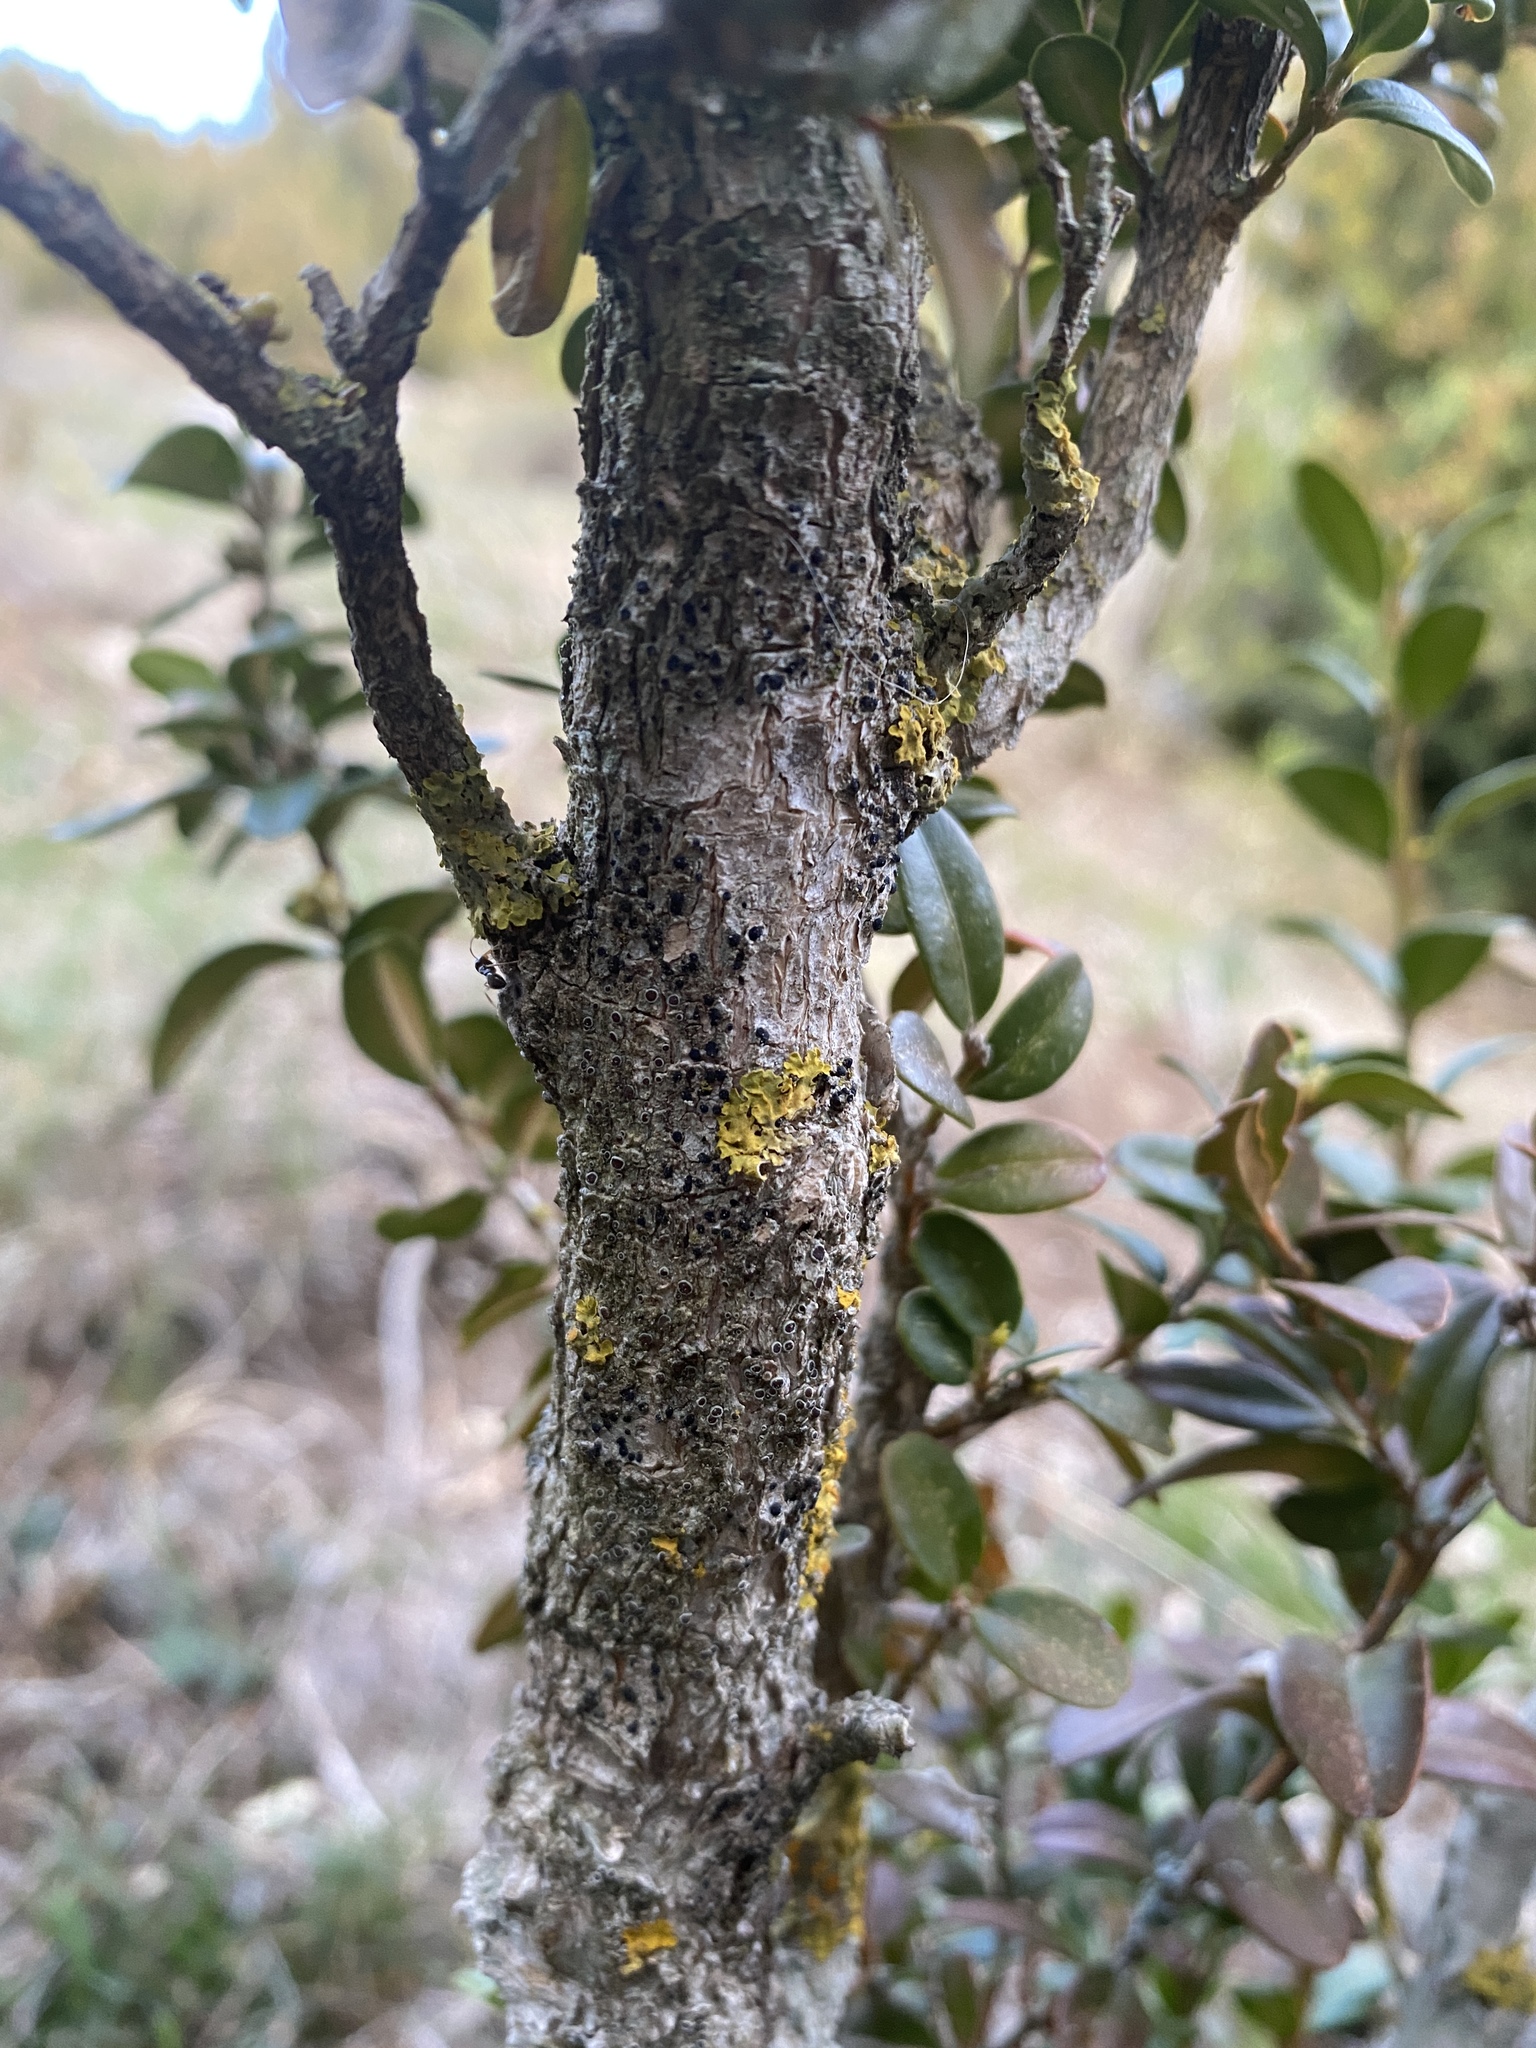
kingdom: Plantae
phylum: Tracheophyta
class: Magnoliopsida
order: Buxales
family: Buxaceae
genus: Buxus
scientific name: Buxus sempervirens
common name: Box
